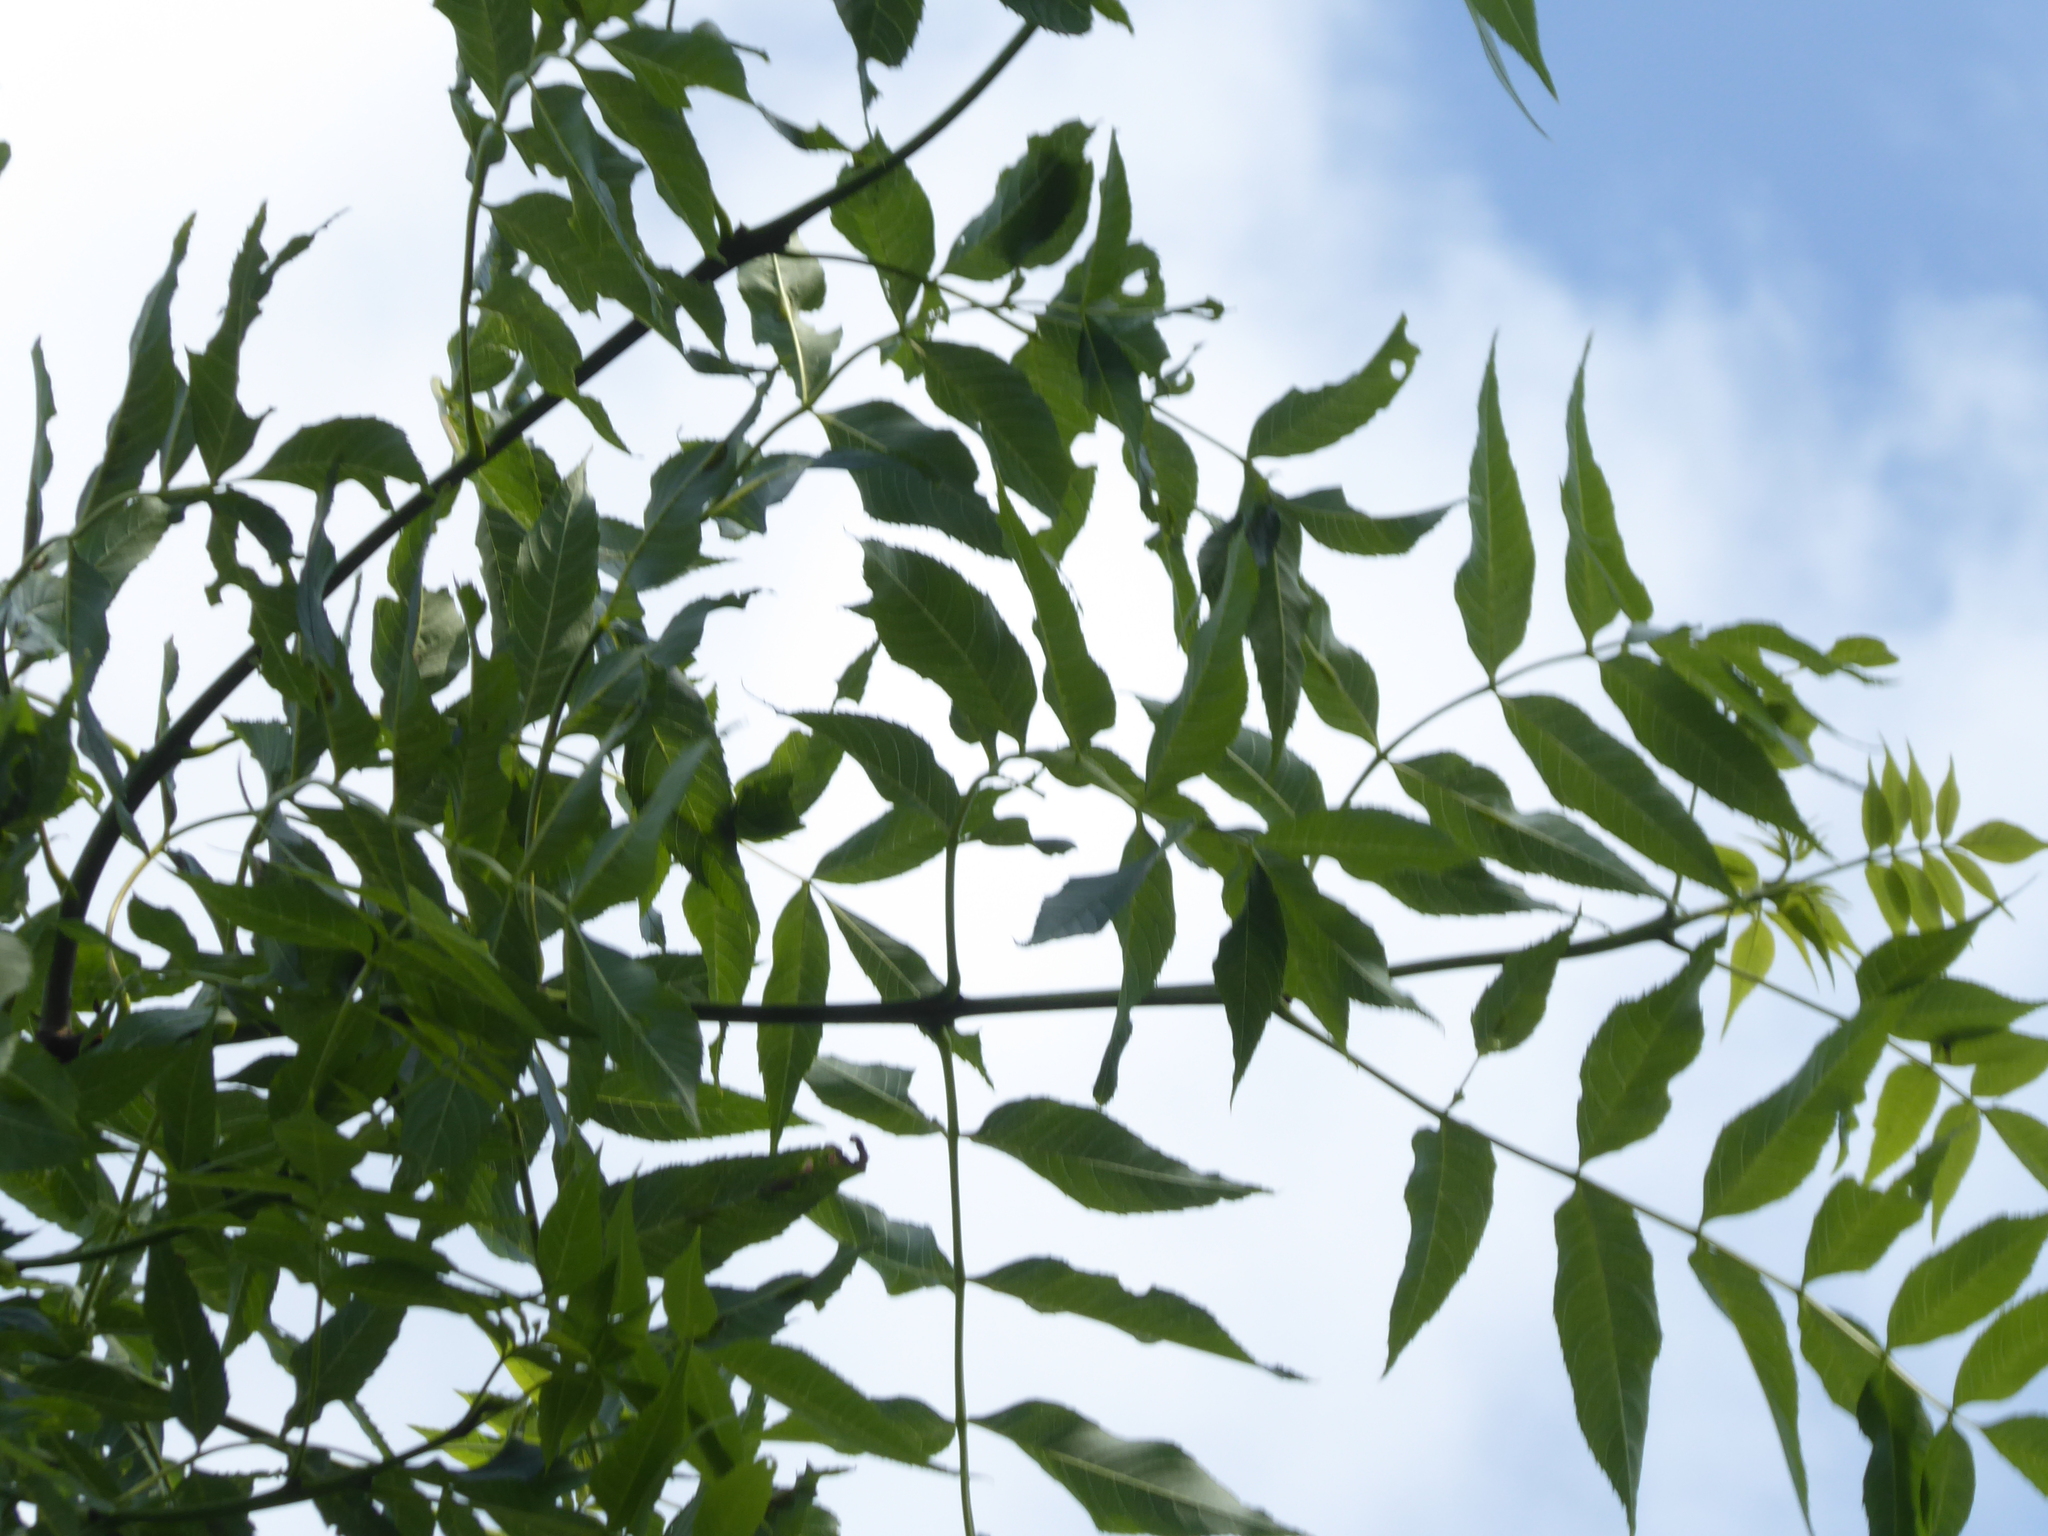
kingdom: Plantae
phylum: Tracheophyta
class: Magnoliopsida
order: Lamiales
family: Oleaceae
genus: Fraxinus
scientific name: Fraxinus excelsior
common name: European ash
